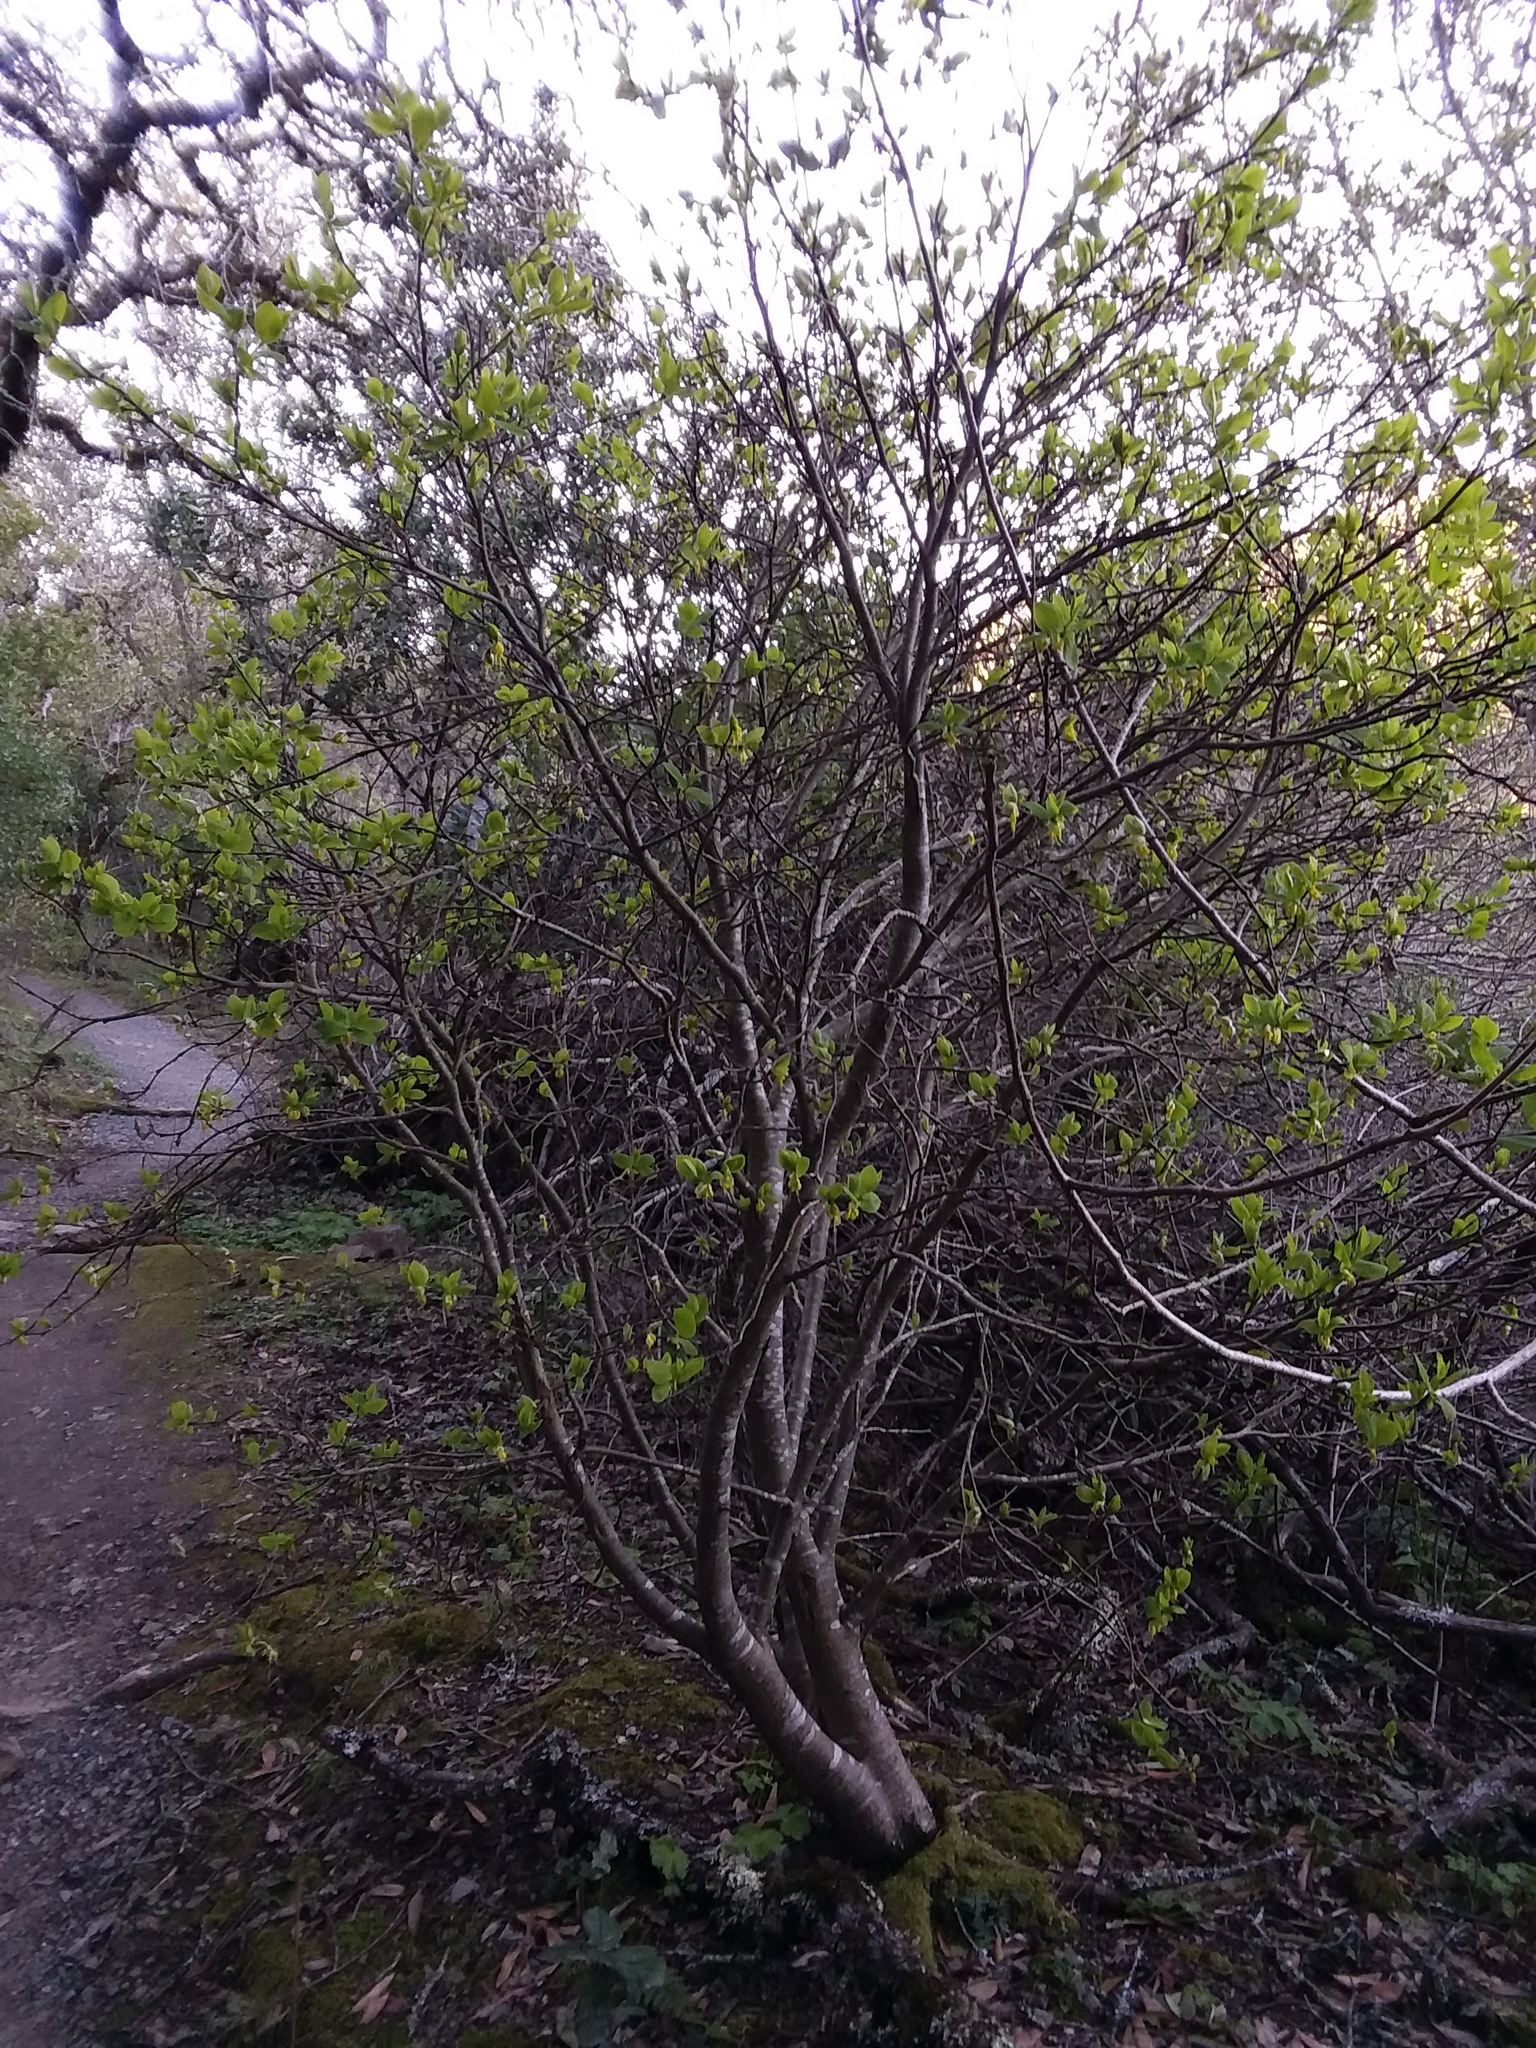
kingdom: Plantae
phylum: Tracheophyta
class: Magnoliopsida
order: Malvales
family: Thymelaeaceae
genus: Dirca
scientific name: Dirca occidentalis
